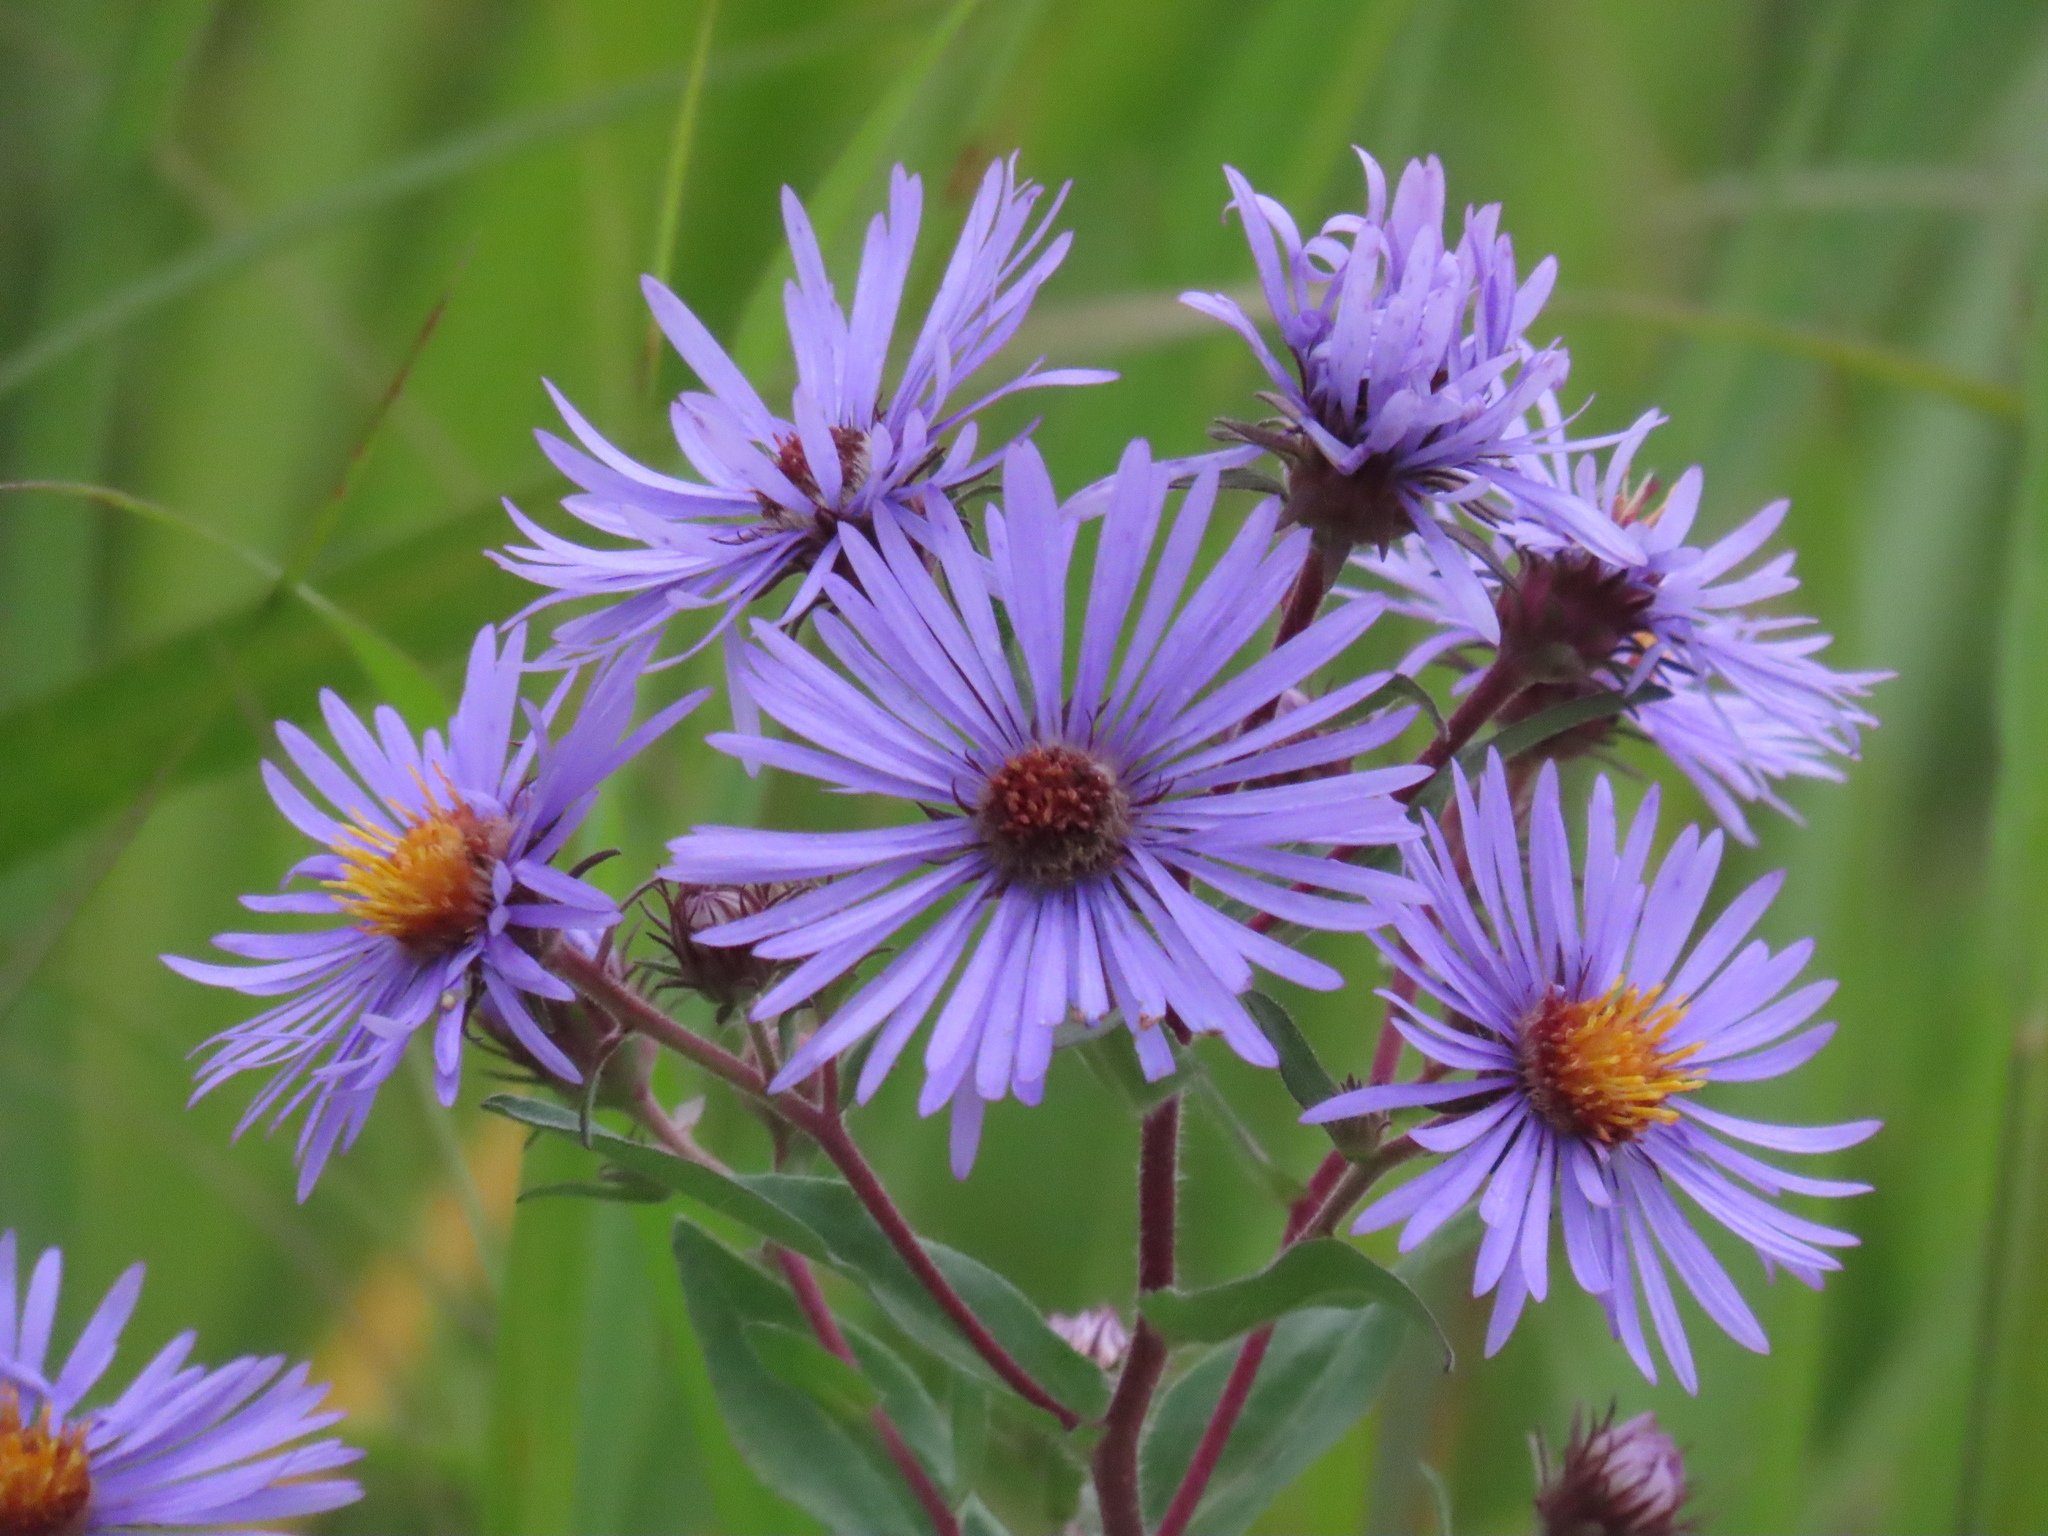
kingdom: Plantae
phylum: Tracheophyta
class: Magnoliopsida
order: Asterales
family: Asteraceae
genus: Symphyotrichum
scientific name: Symphyotrichum novae-angliae
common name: Michaelmas daisy
